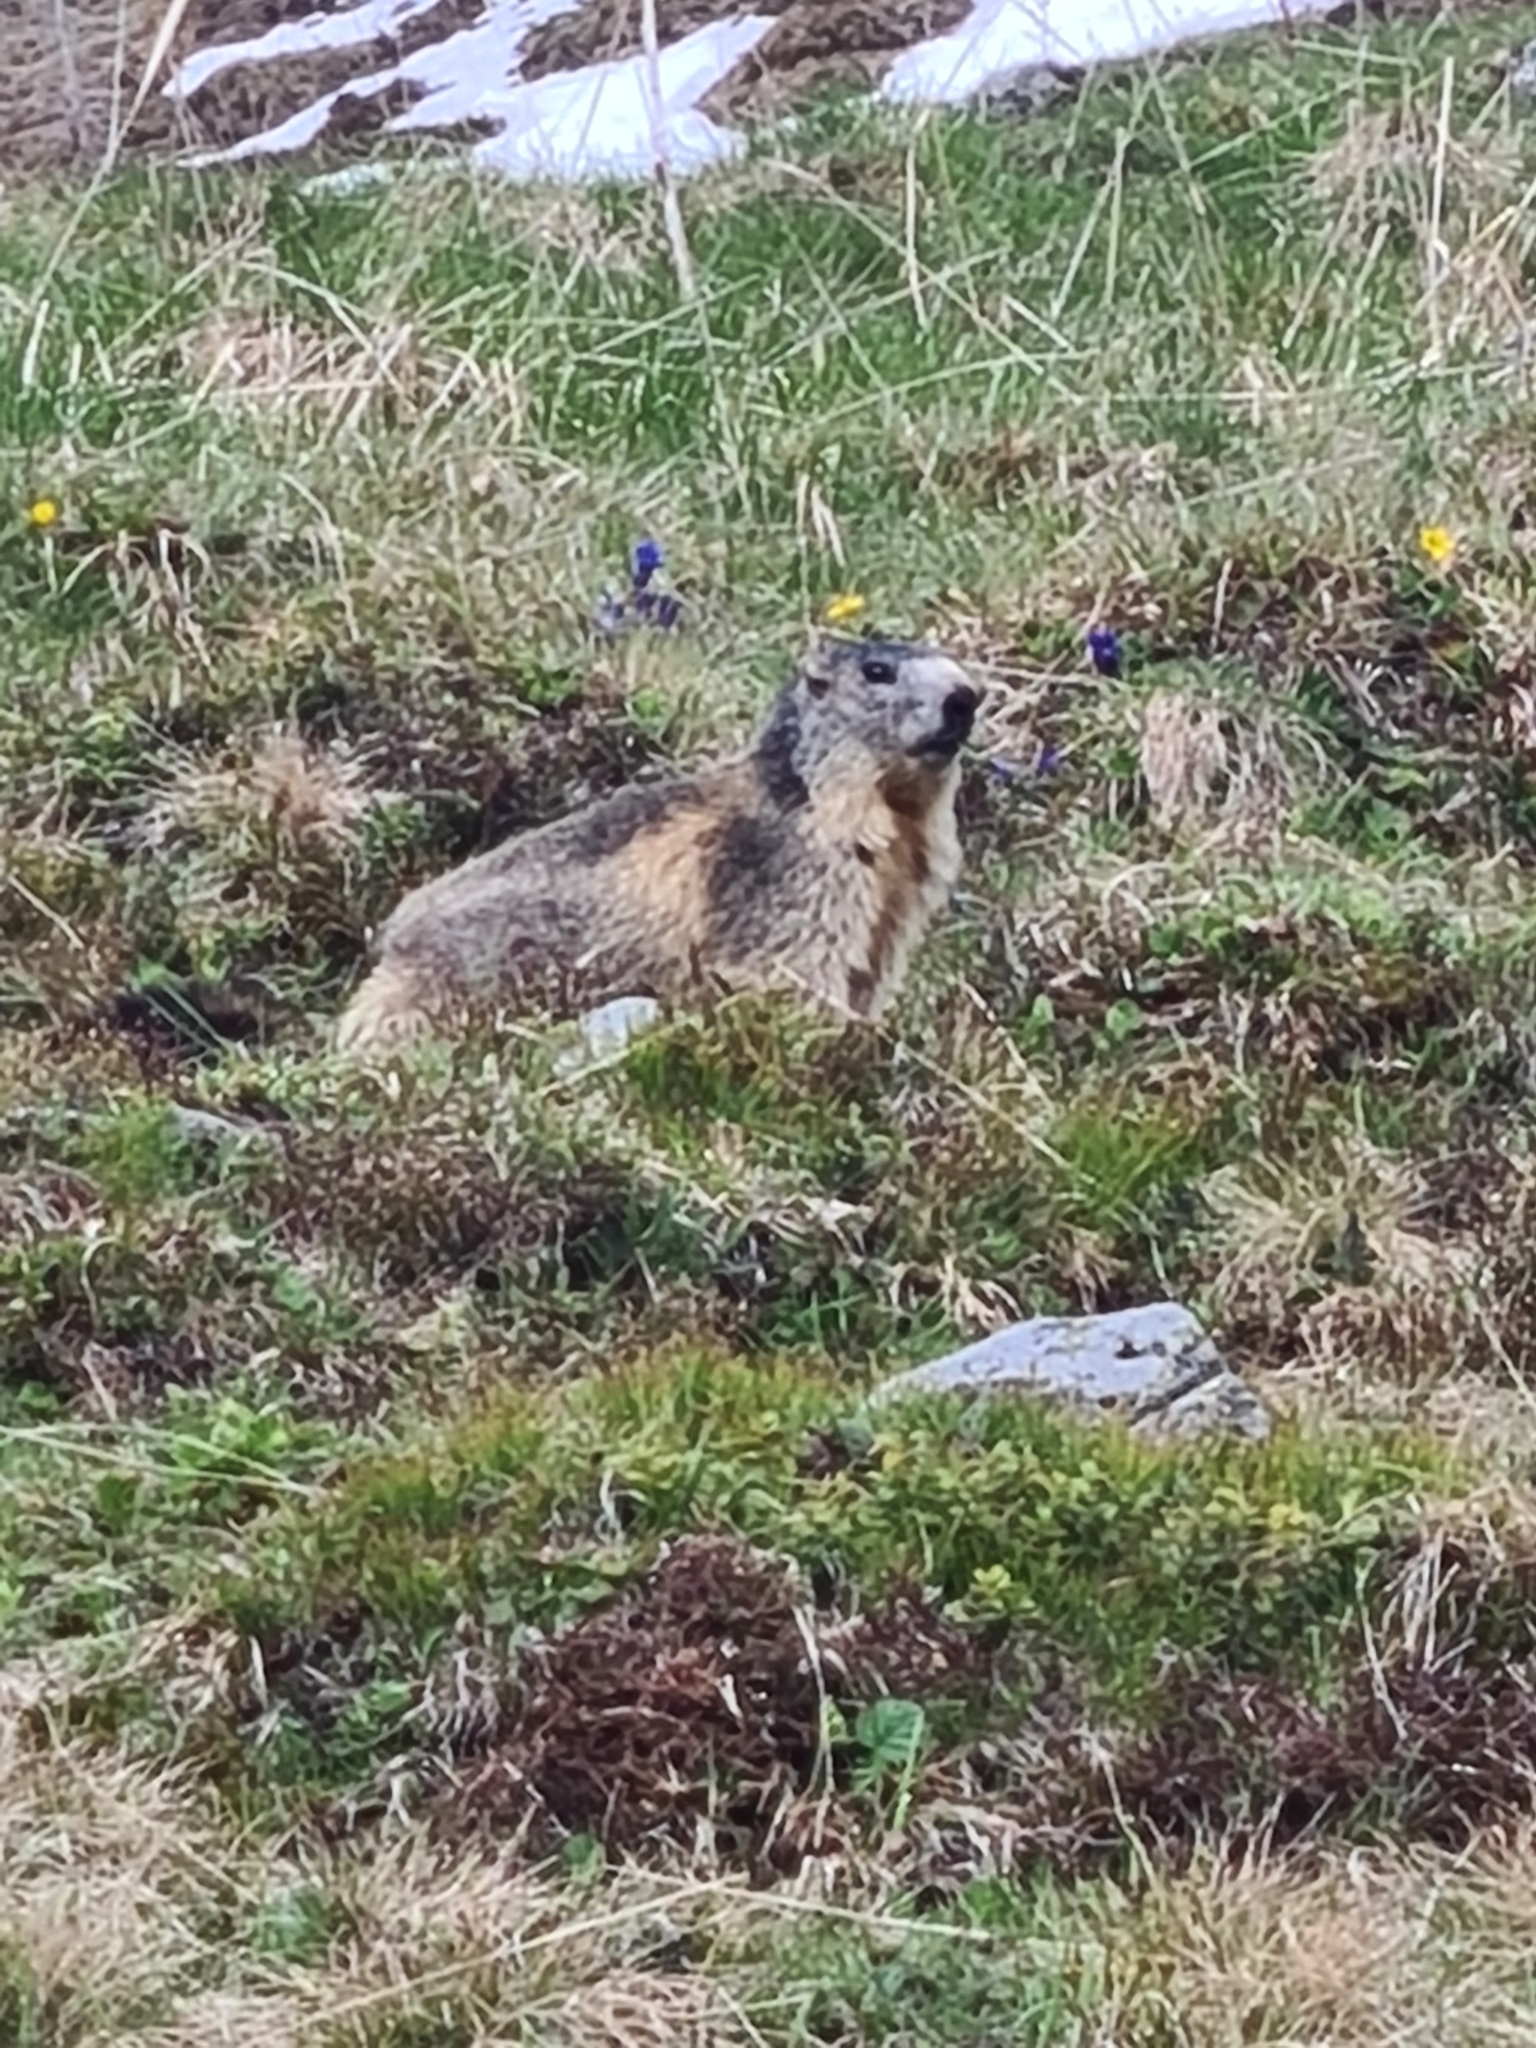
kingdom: Animalia
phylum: Chordata
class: Mammalia
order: Rodentia
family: Sciuridae
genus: Marmota
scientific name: Marmota marmota
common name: Alpine marmot
